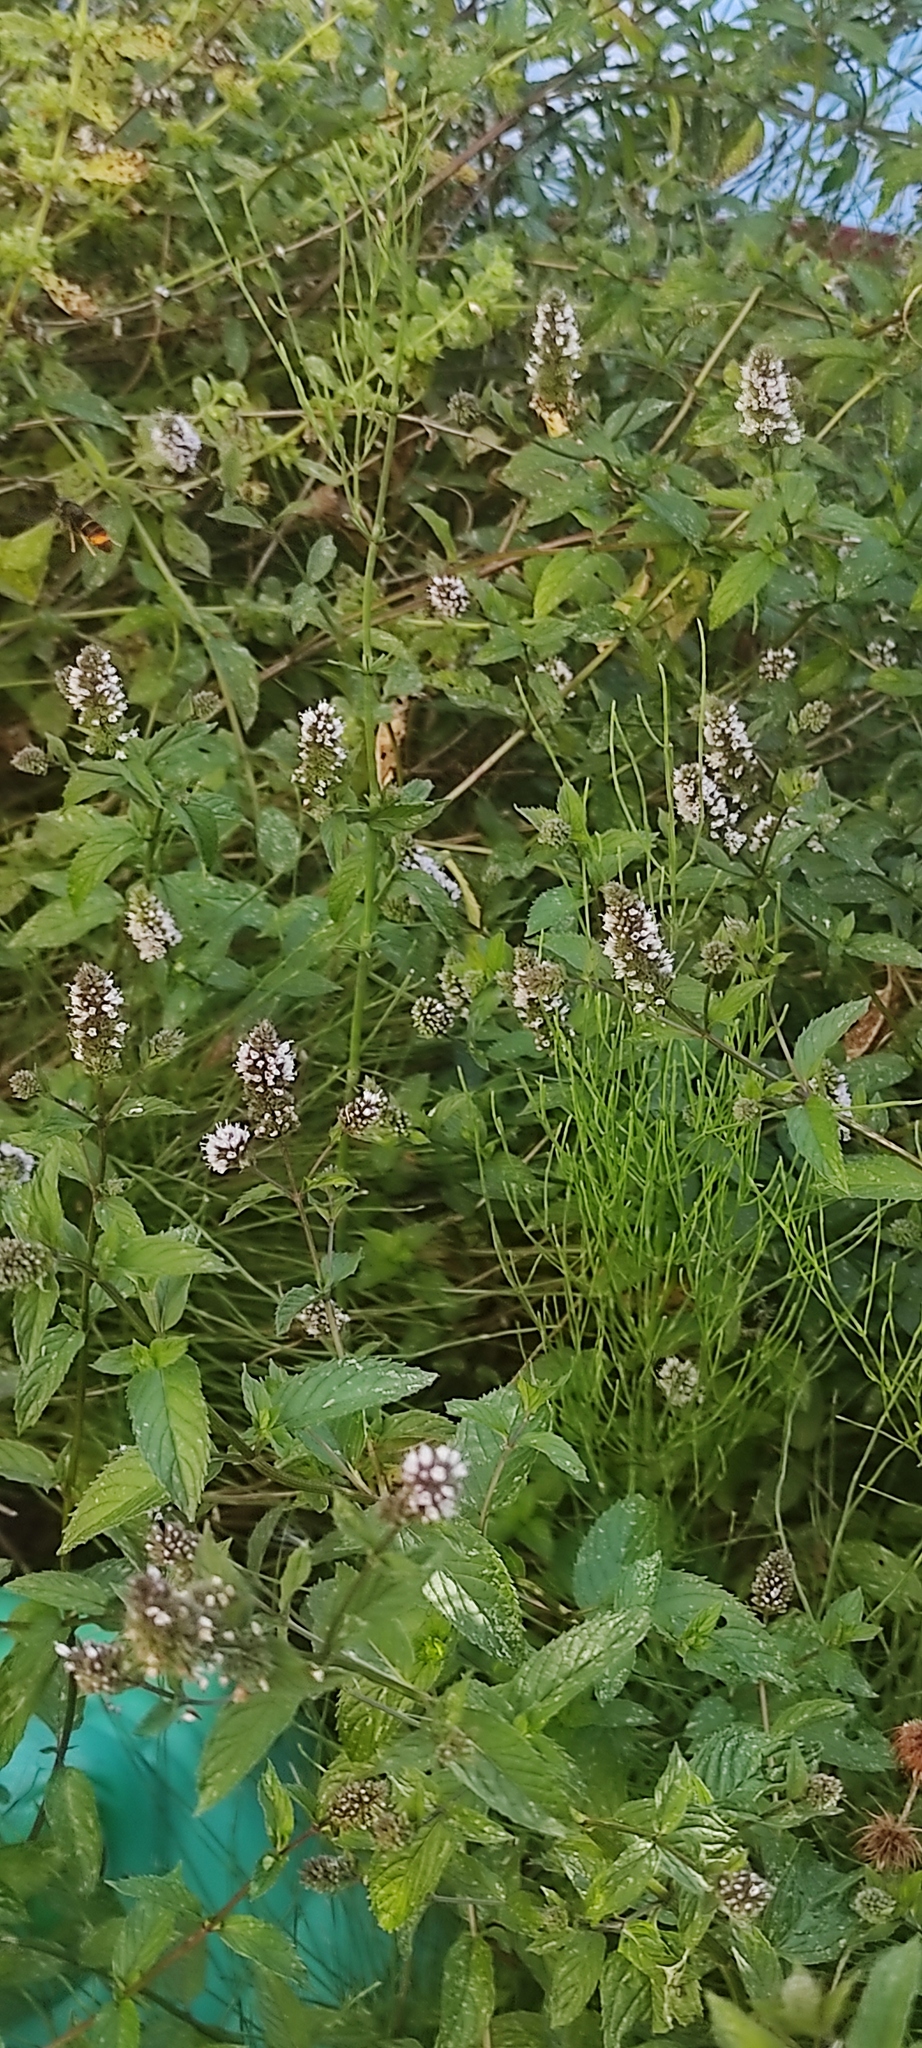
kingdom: Animalia
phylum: Arthropoda
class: Insecta
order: Hymenoptera
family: Vespidae
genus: Vespa
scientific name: Vespa velutina
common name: Asian hornet
